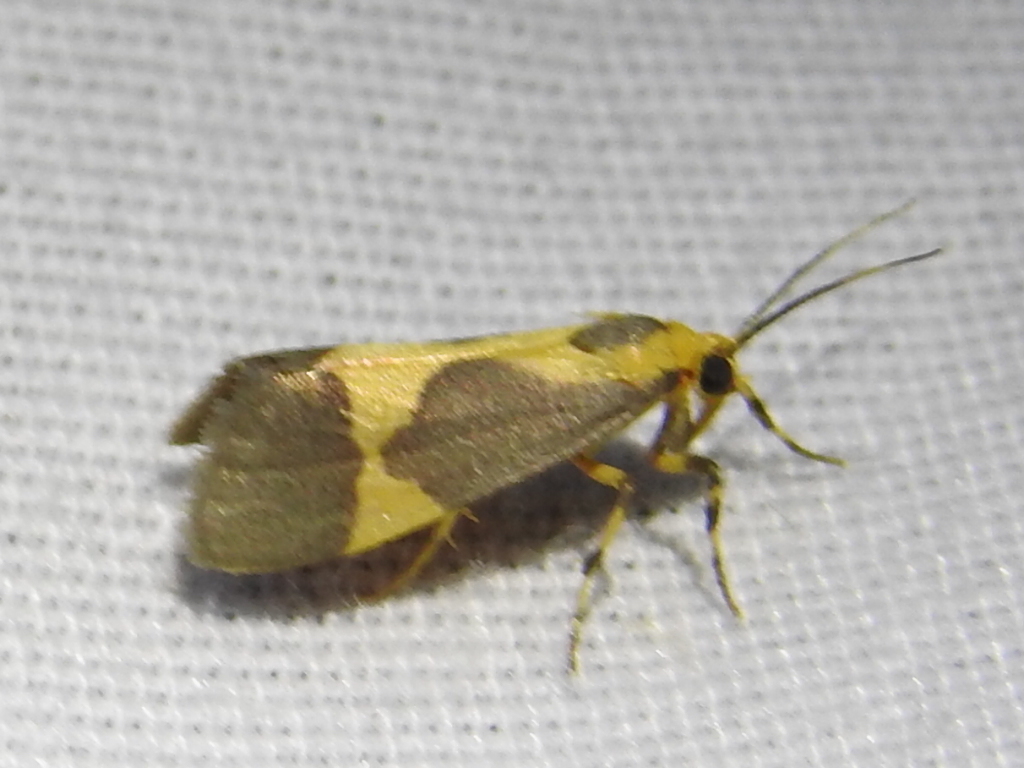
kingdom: Animalia
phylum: Arthropoda
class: Insecta
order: Lepidoptera
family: Erebidae
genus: Cisthene
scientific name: Cisthene unifascia
